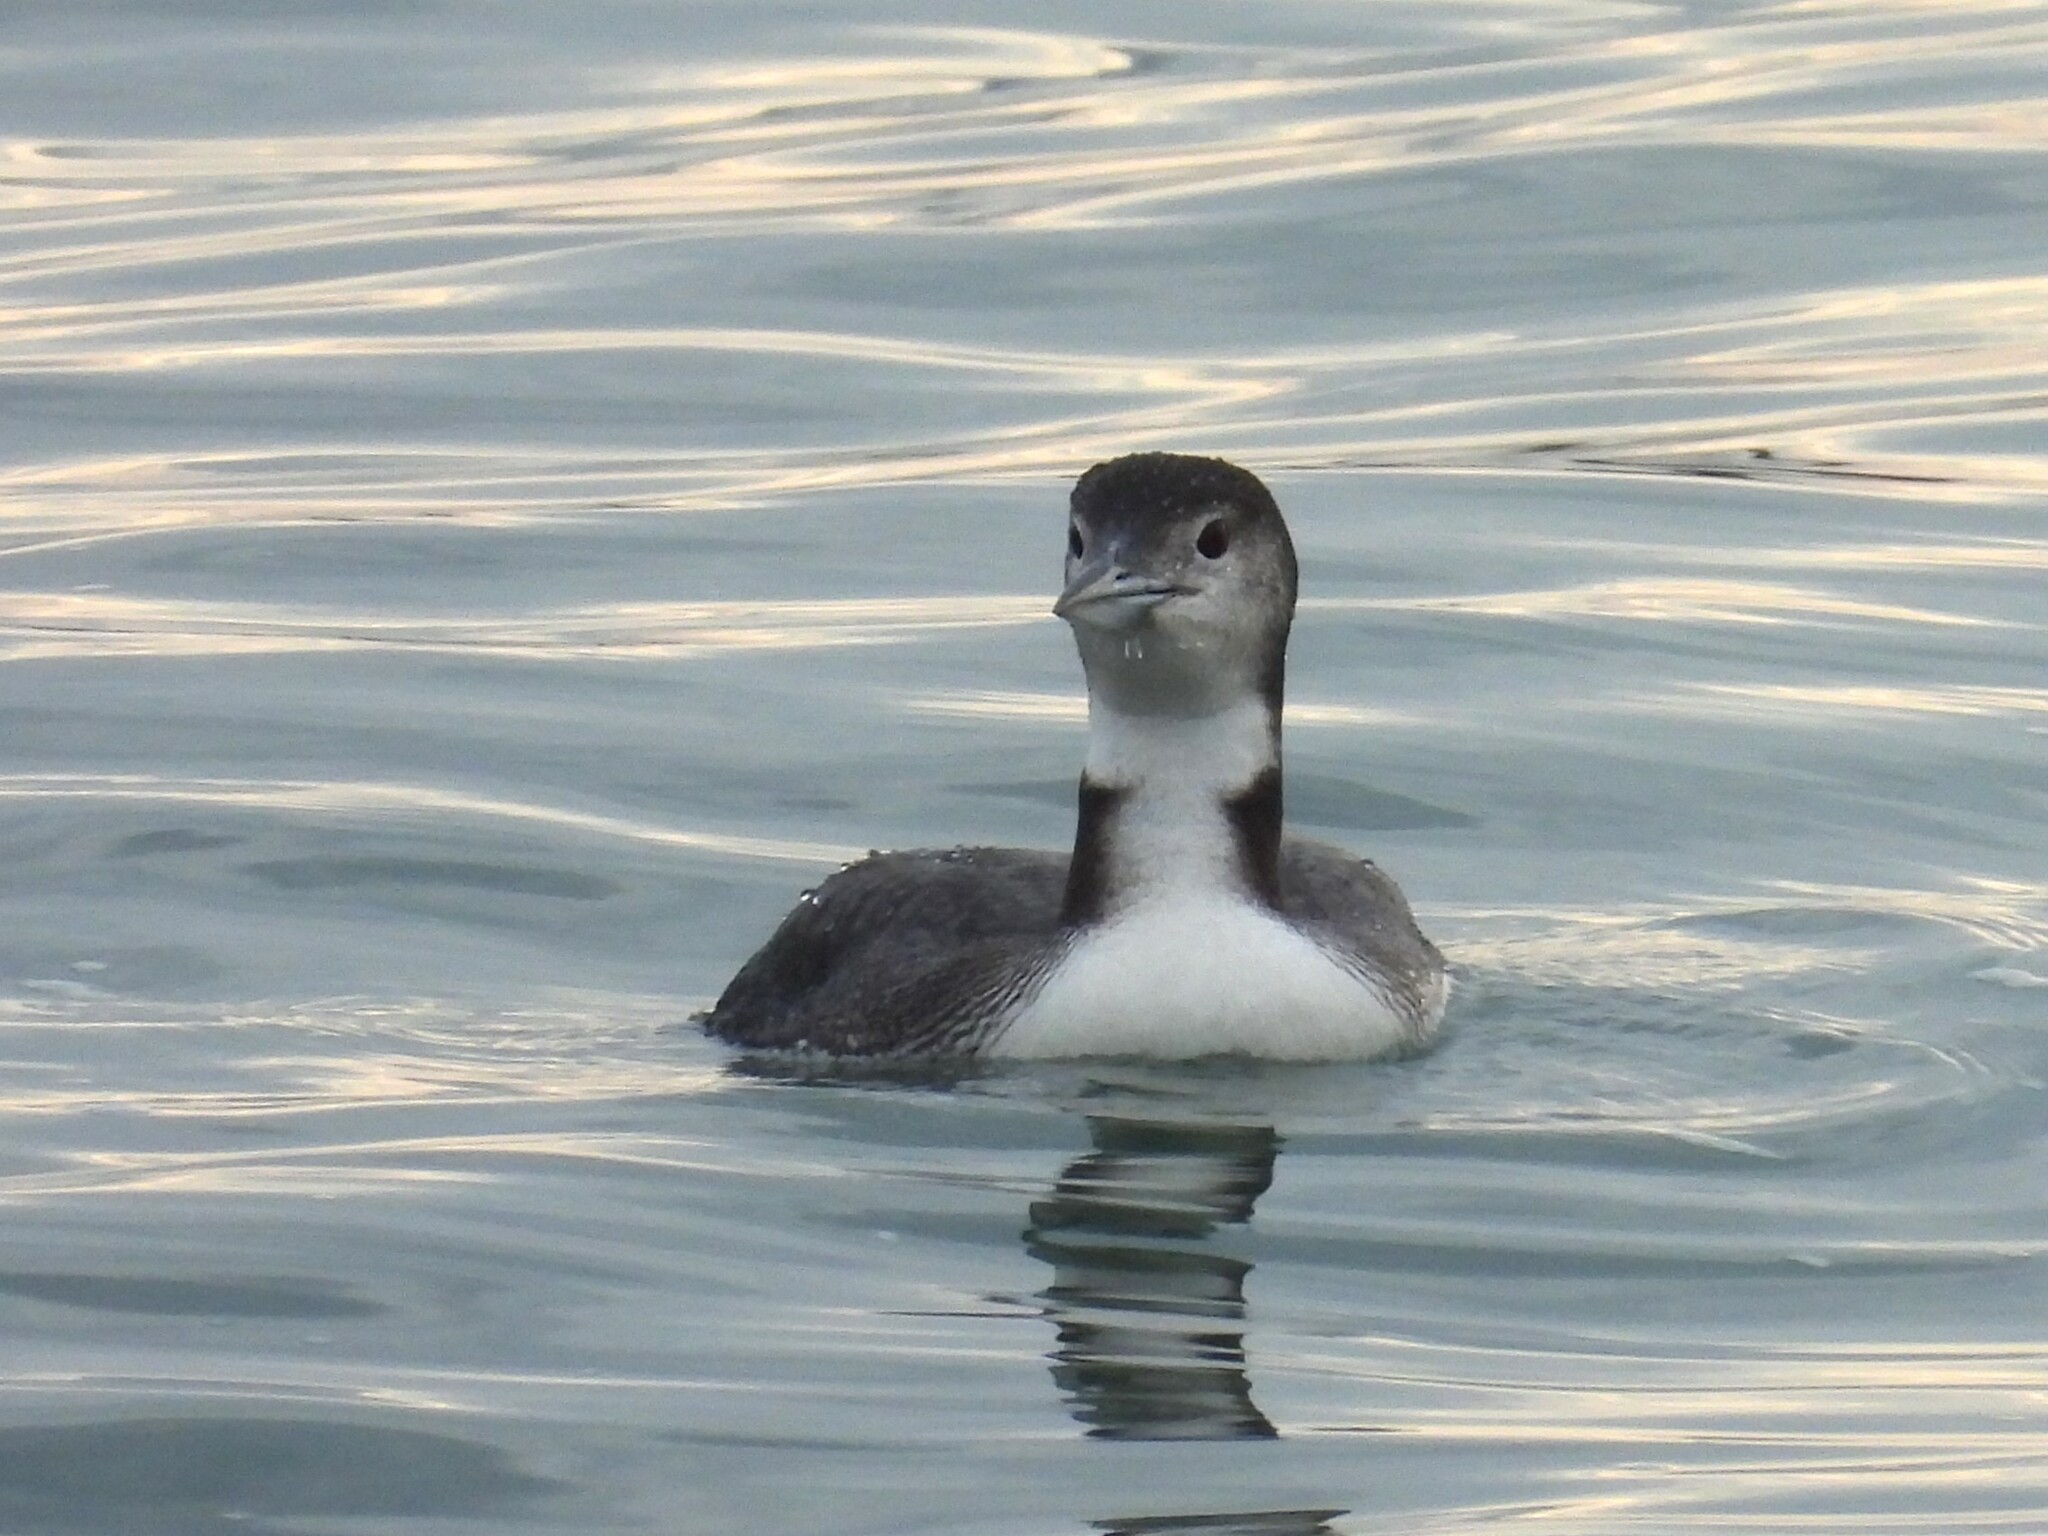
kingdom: Animalia
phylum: Chordata
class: Aves
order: Gaviiformes
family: Gaviidae
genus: Gavia
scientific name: Gavia immer
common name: Common loon
